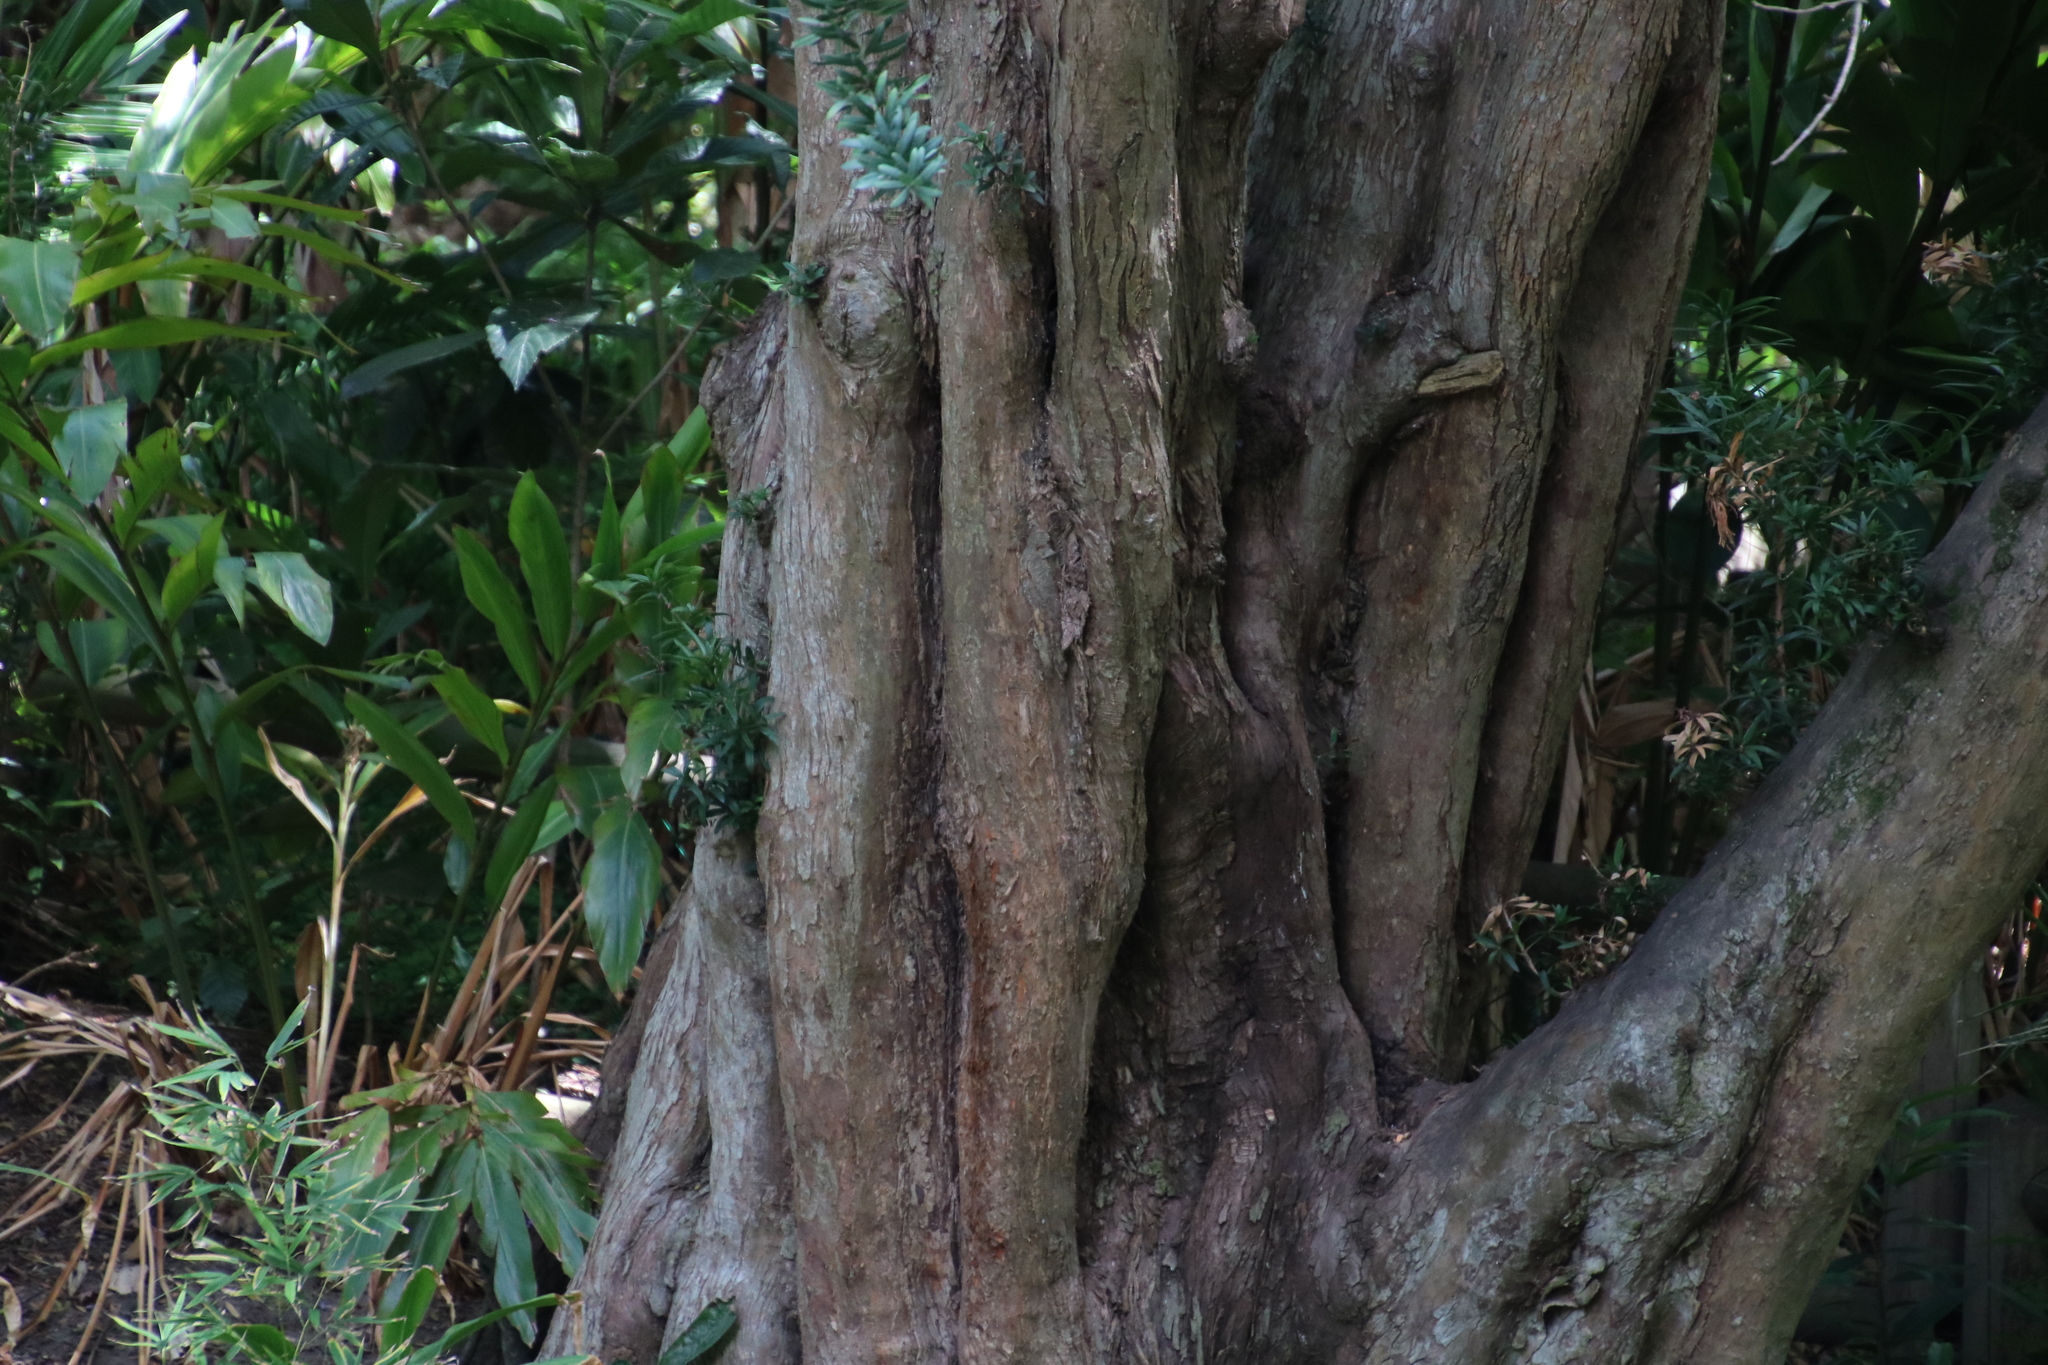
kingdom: Plantae
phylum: Tracheophyta
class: Pinopsida
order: Pinales
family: Podocarpaceae
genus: Podocarpus
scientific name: Podocarpus latifolius
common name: True yellowwood
